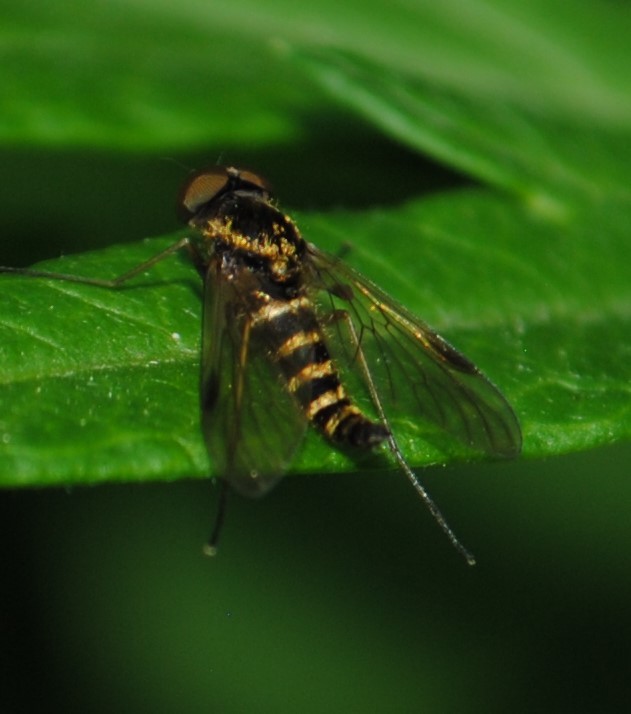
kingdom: Animalia
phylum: Arthropoda
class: Insecta
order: Diptera
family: Rhagionidae
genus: Chrysopilus
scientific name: Chrysopilus fasciatus
